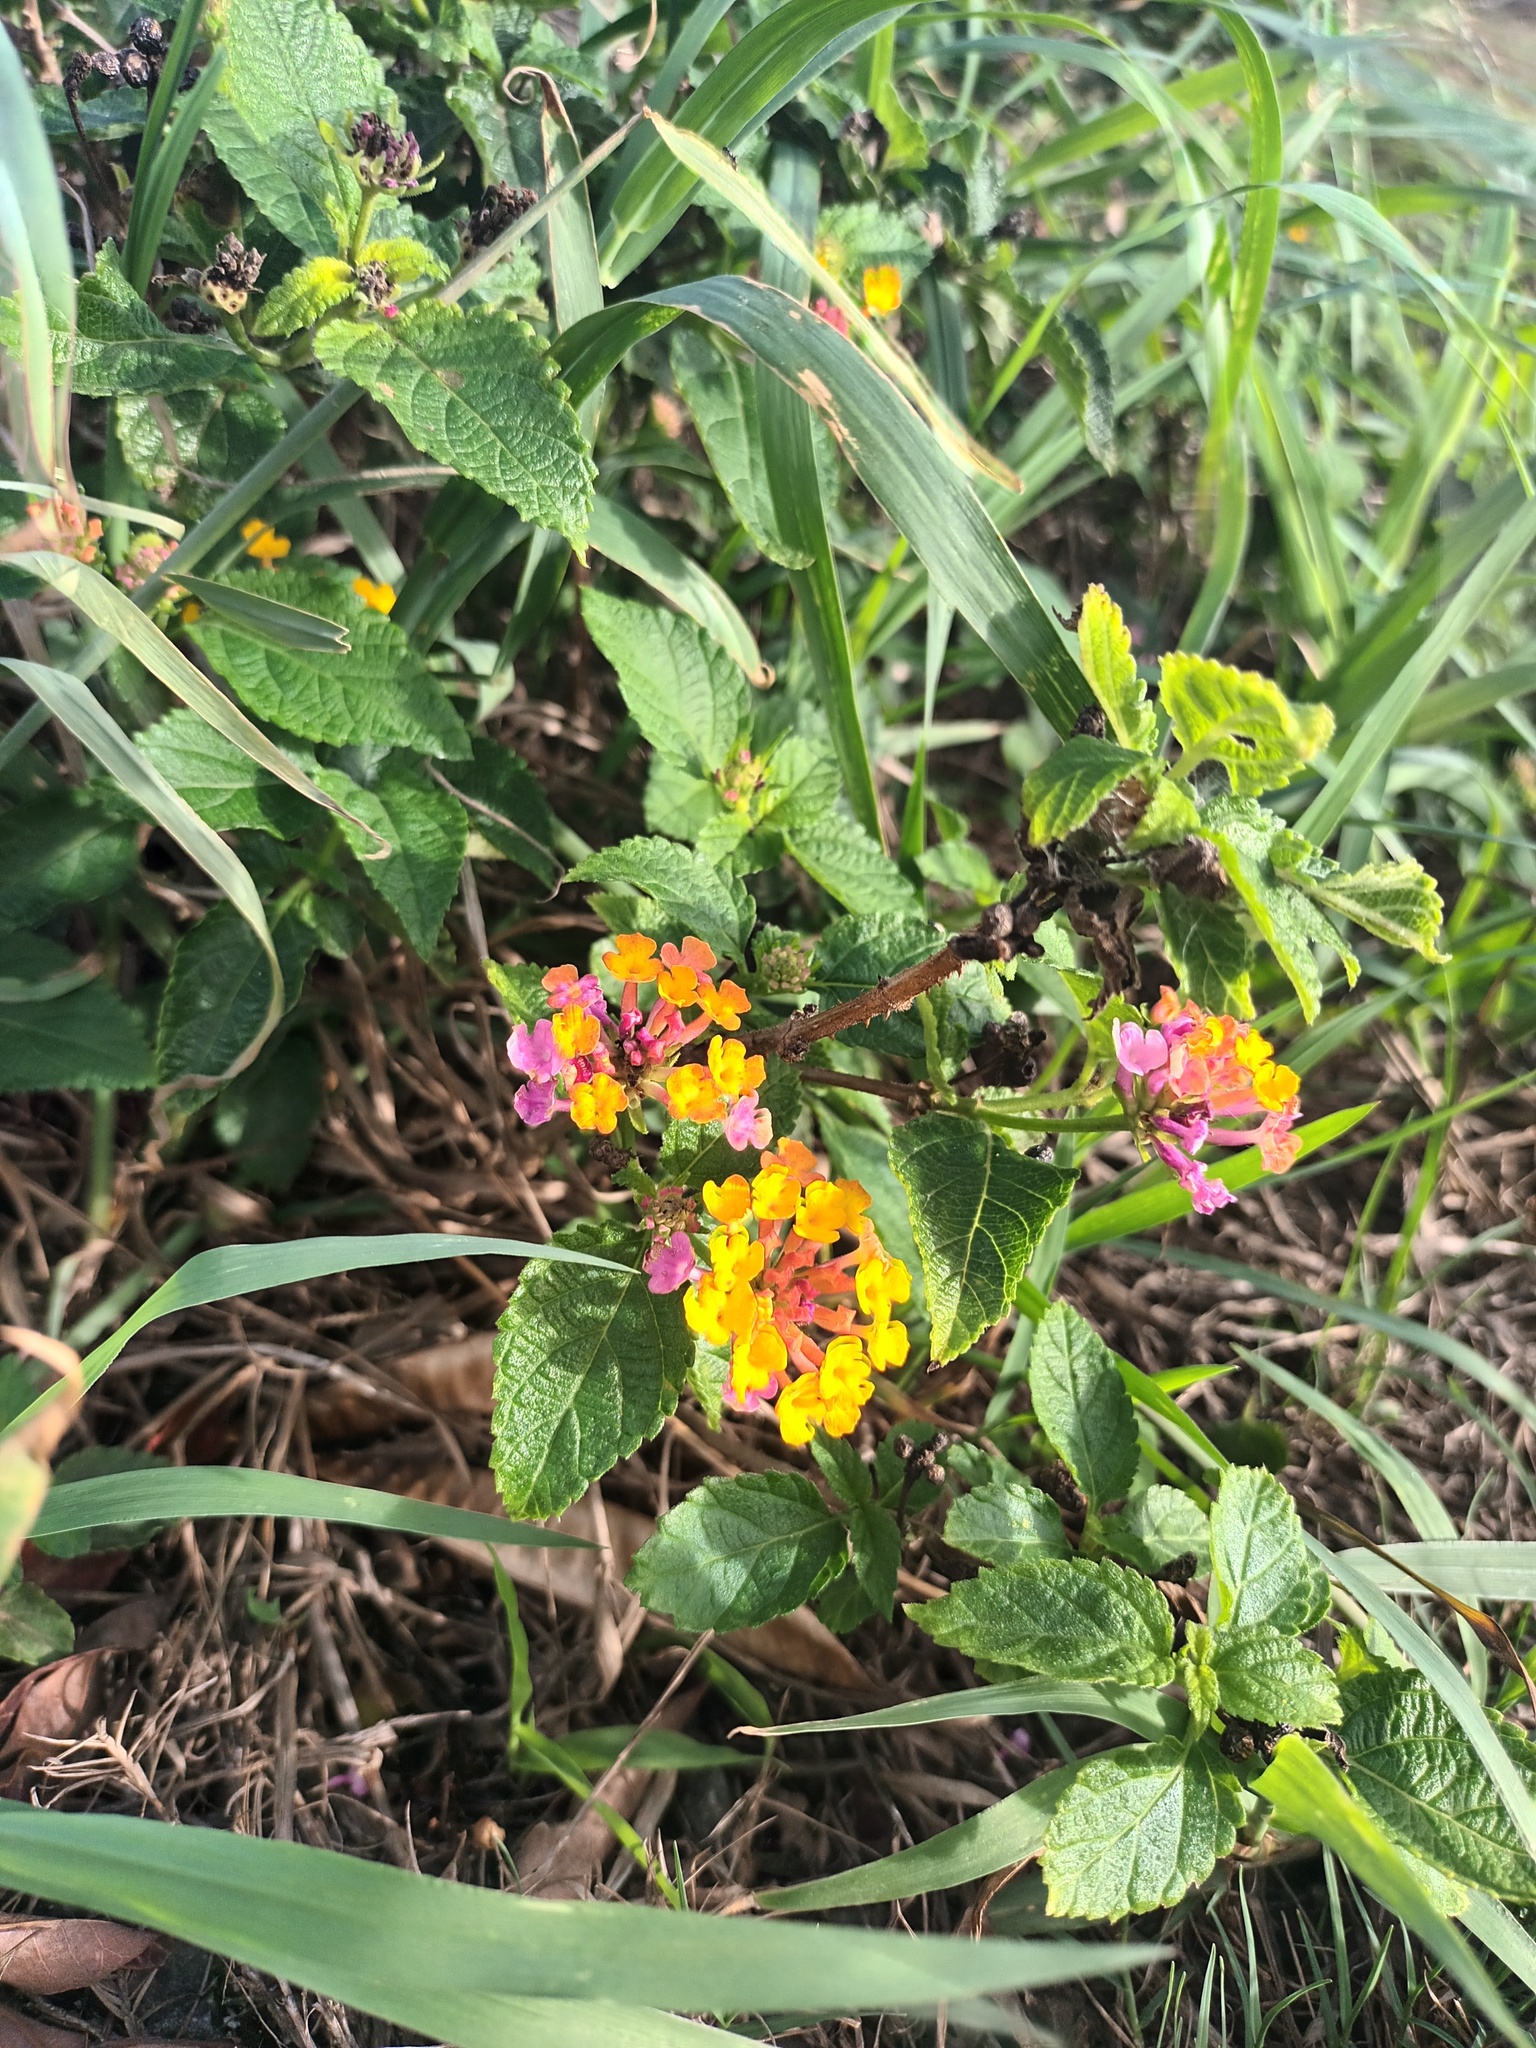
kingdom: Plantae
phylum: Tracheophyta
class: Magnoliopsida
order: Lamiales
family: Verbenaceae
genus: Lantana
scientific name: Lantana camara
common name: Lantana
